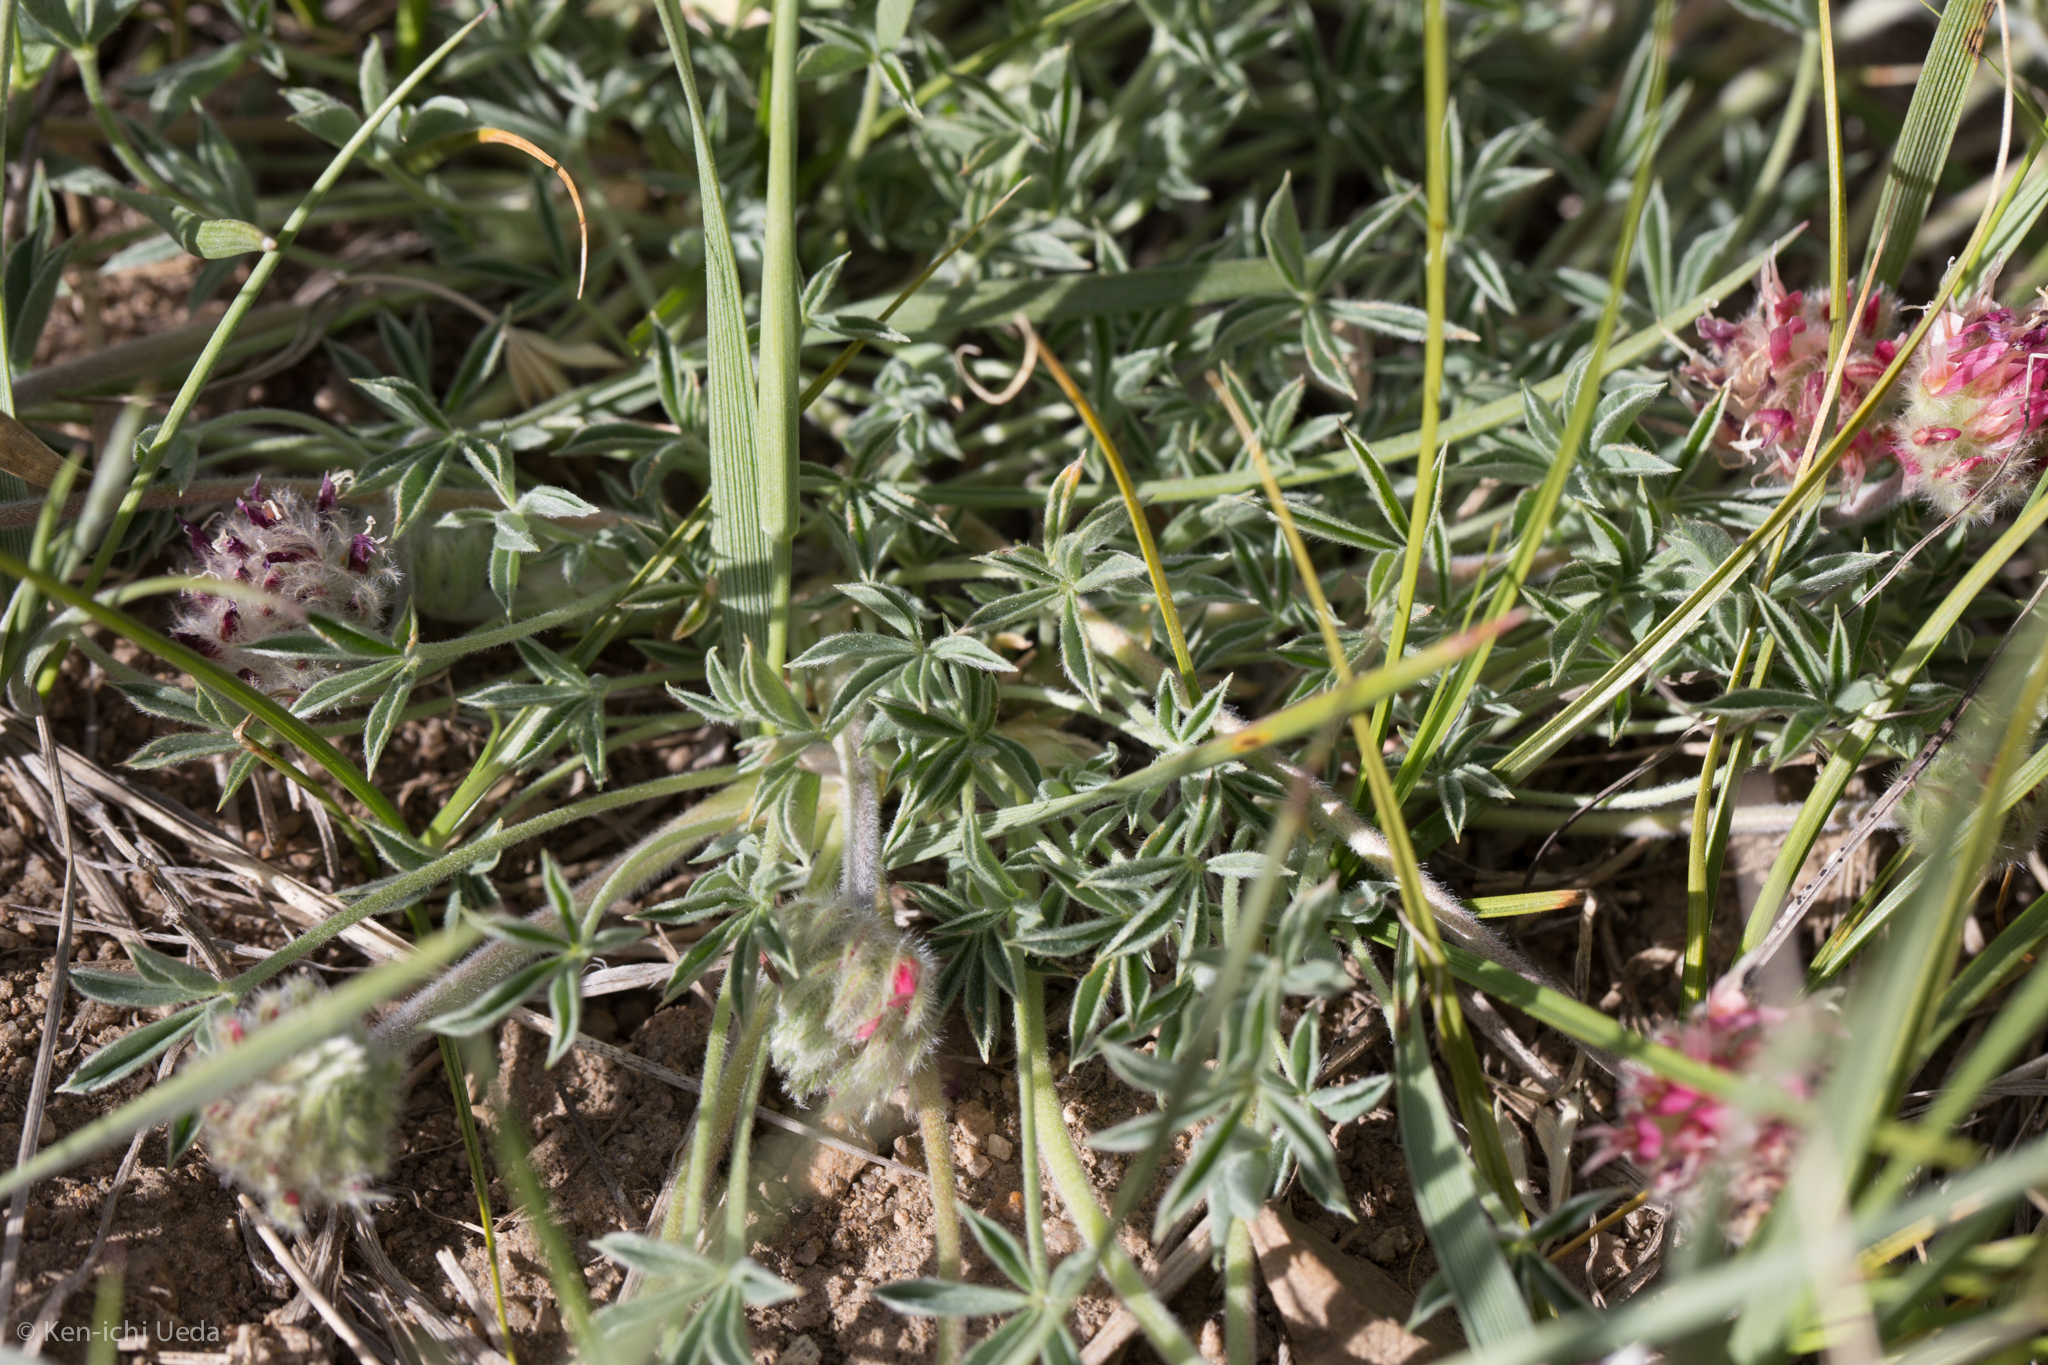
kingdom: Plantae
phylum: Tracheophyta
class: Magnoliopsida
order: Fabales
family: Fabaceae
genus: Trifolium
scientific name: Trifolium andersonii
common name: Anderson's clover
